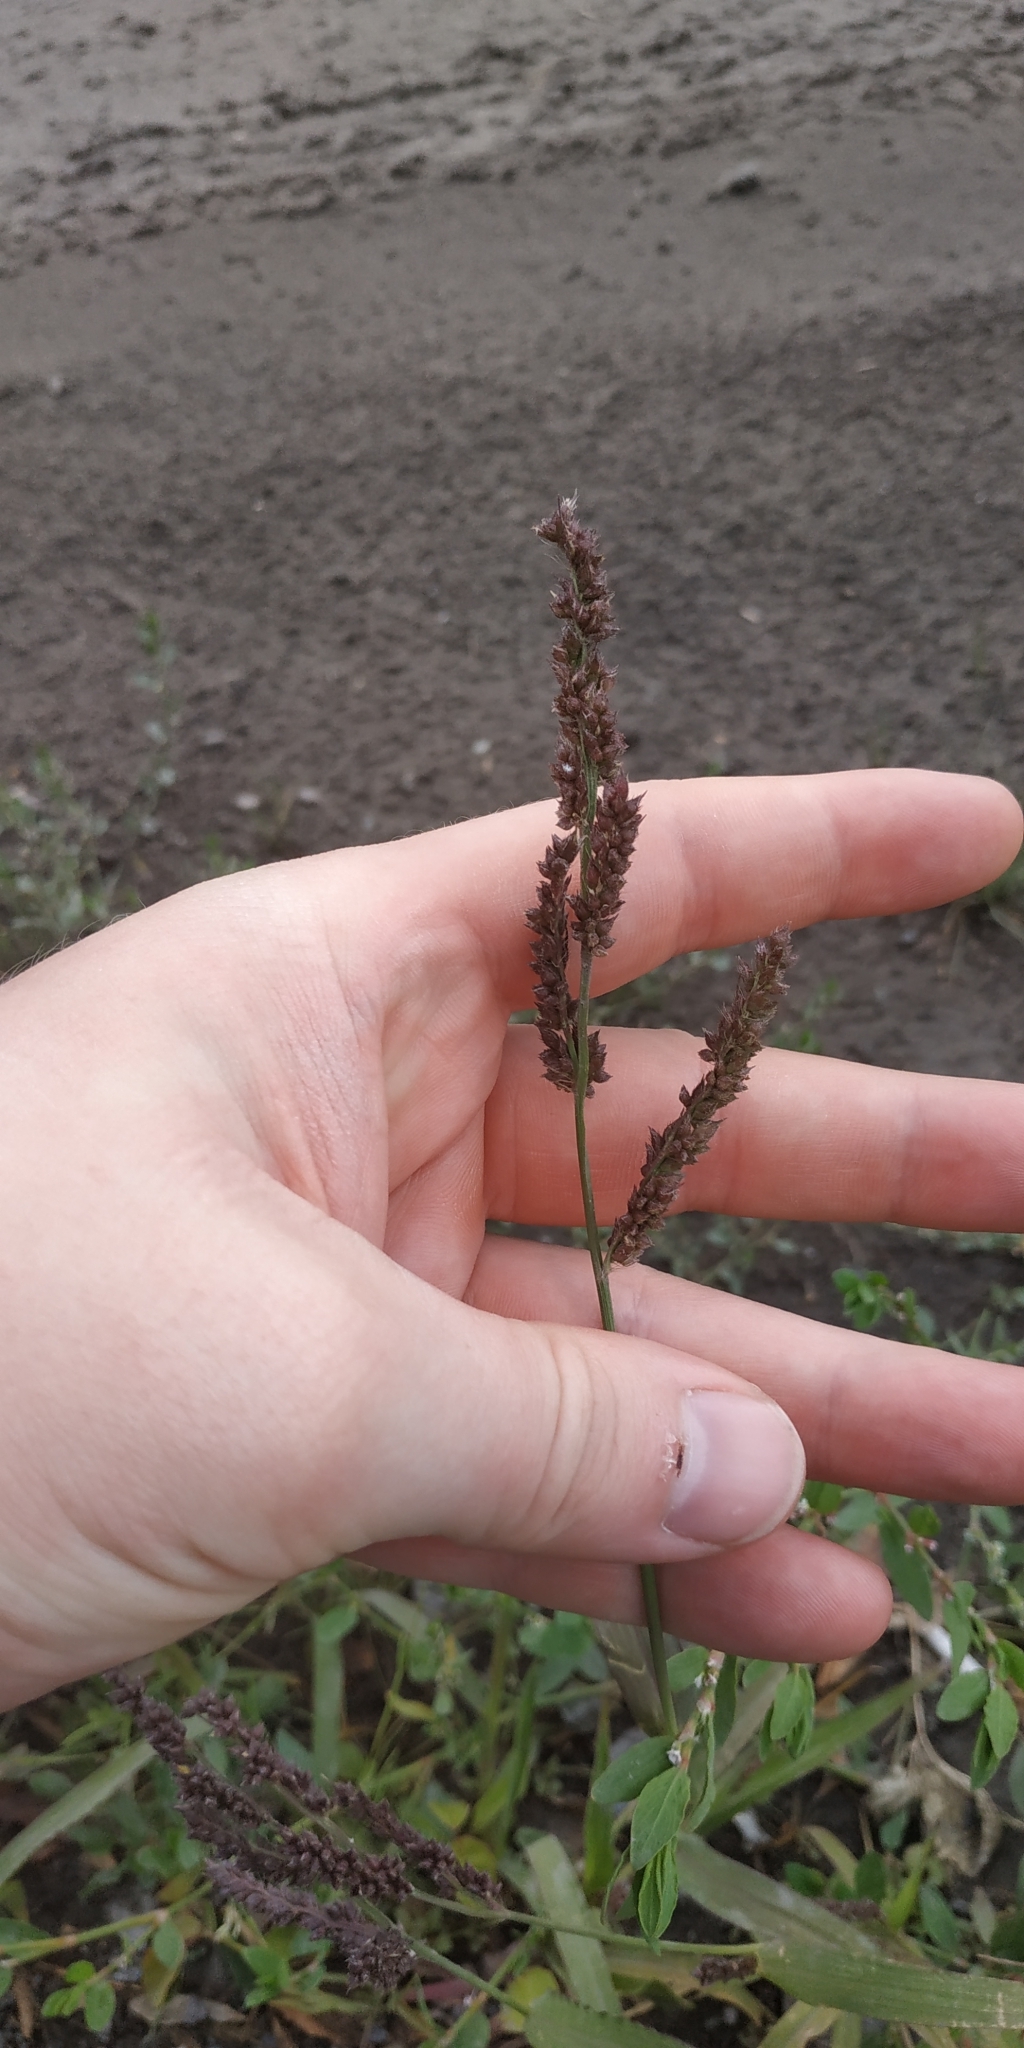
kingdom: Plantae
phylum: Tracheophyta
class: Liliopsida
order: Poales
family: Poaceae
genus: Echinochloa
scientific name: Echinochloa crus-galli
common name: Cockspur
